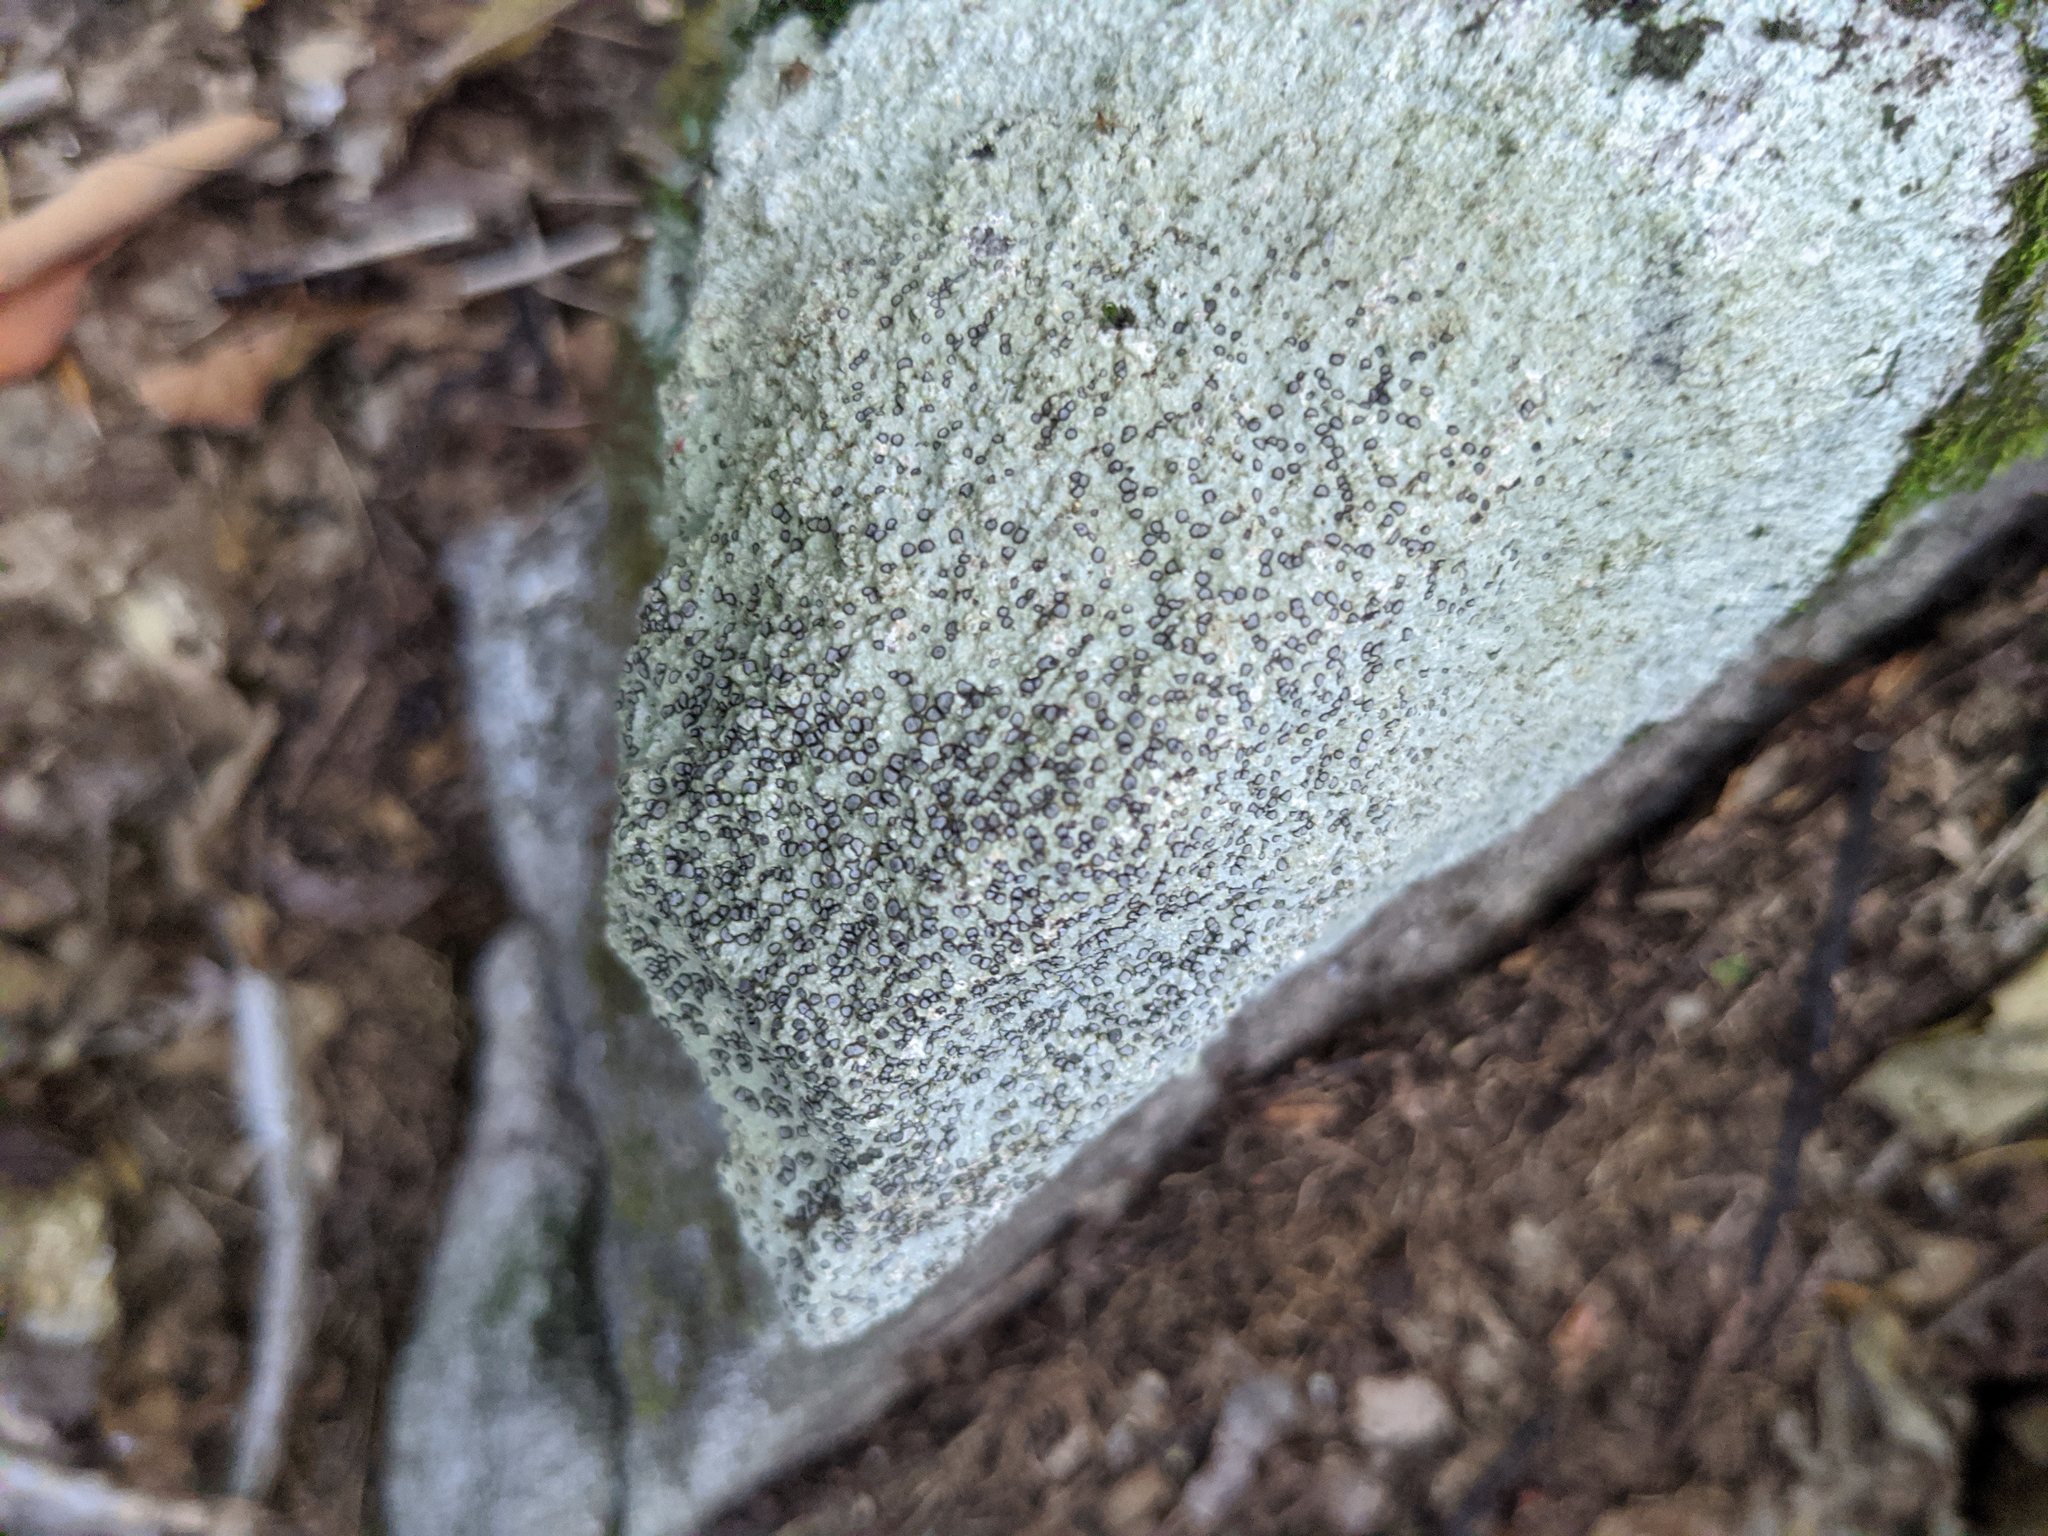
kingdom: Fungi
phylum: Ascomycota
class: Lecanoromycetes
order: Lecideales
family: Lecideaceae
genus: Porpidia
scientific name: Porpidia albocaerulescens
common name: Smokey-eyed boulder lichen
